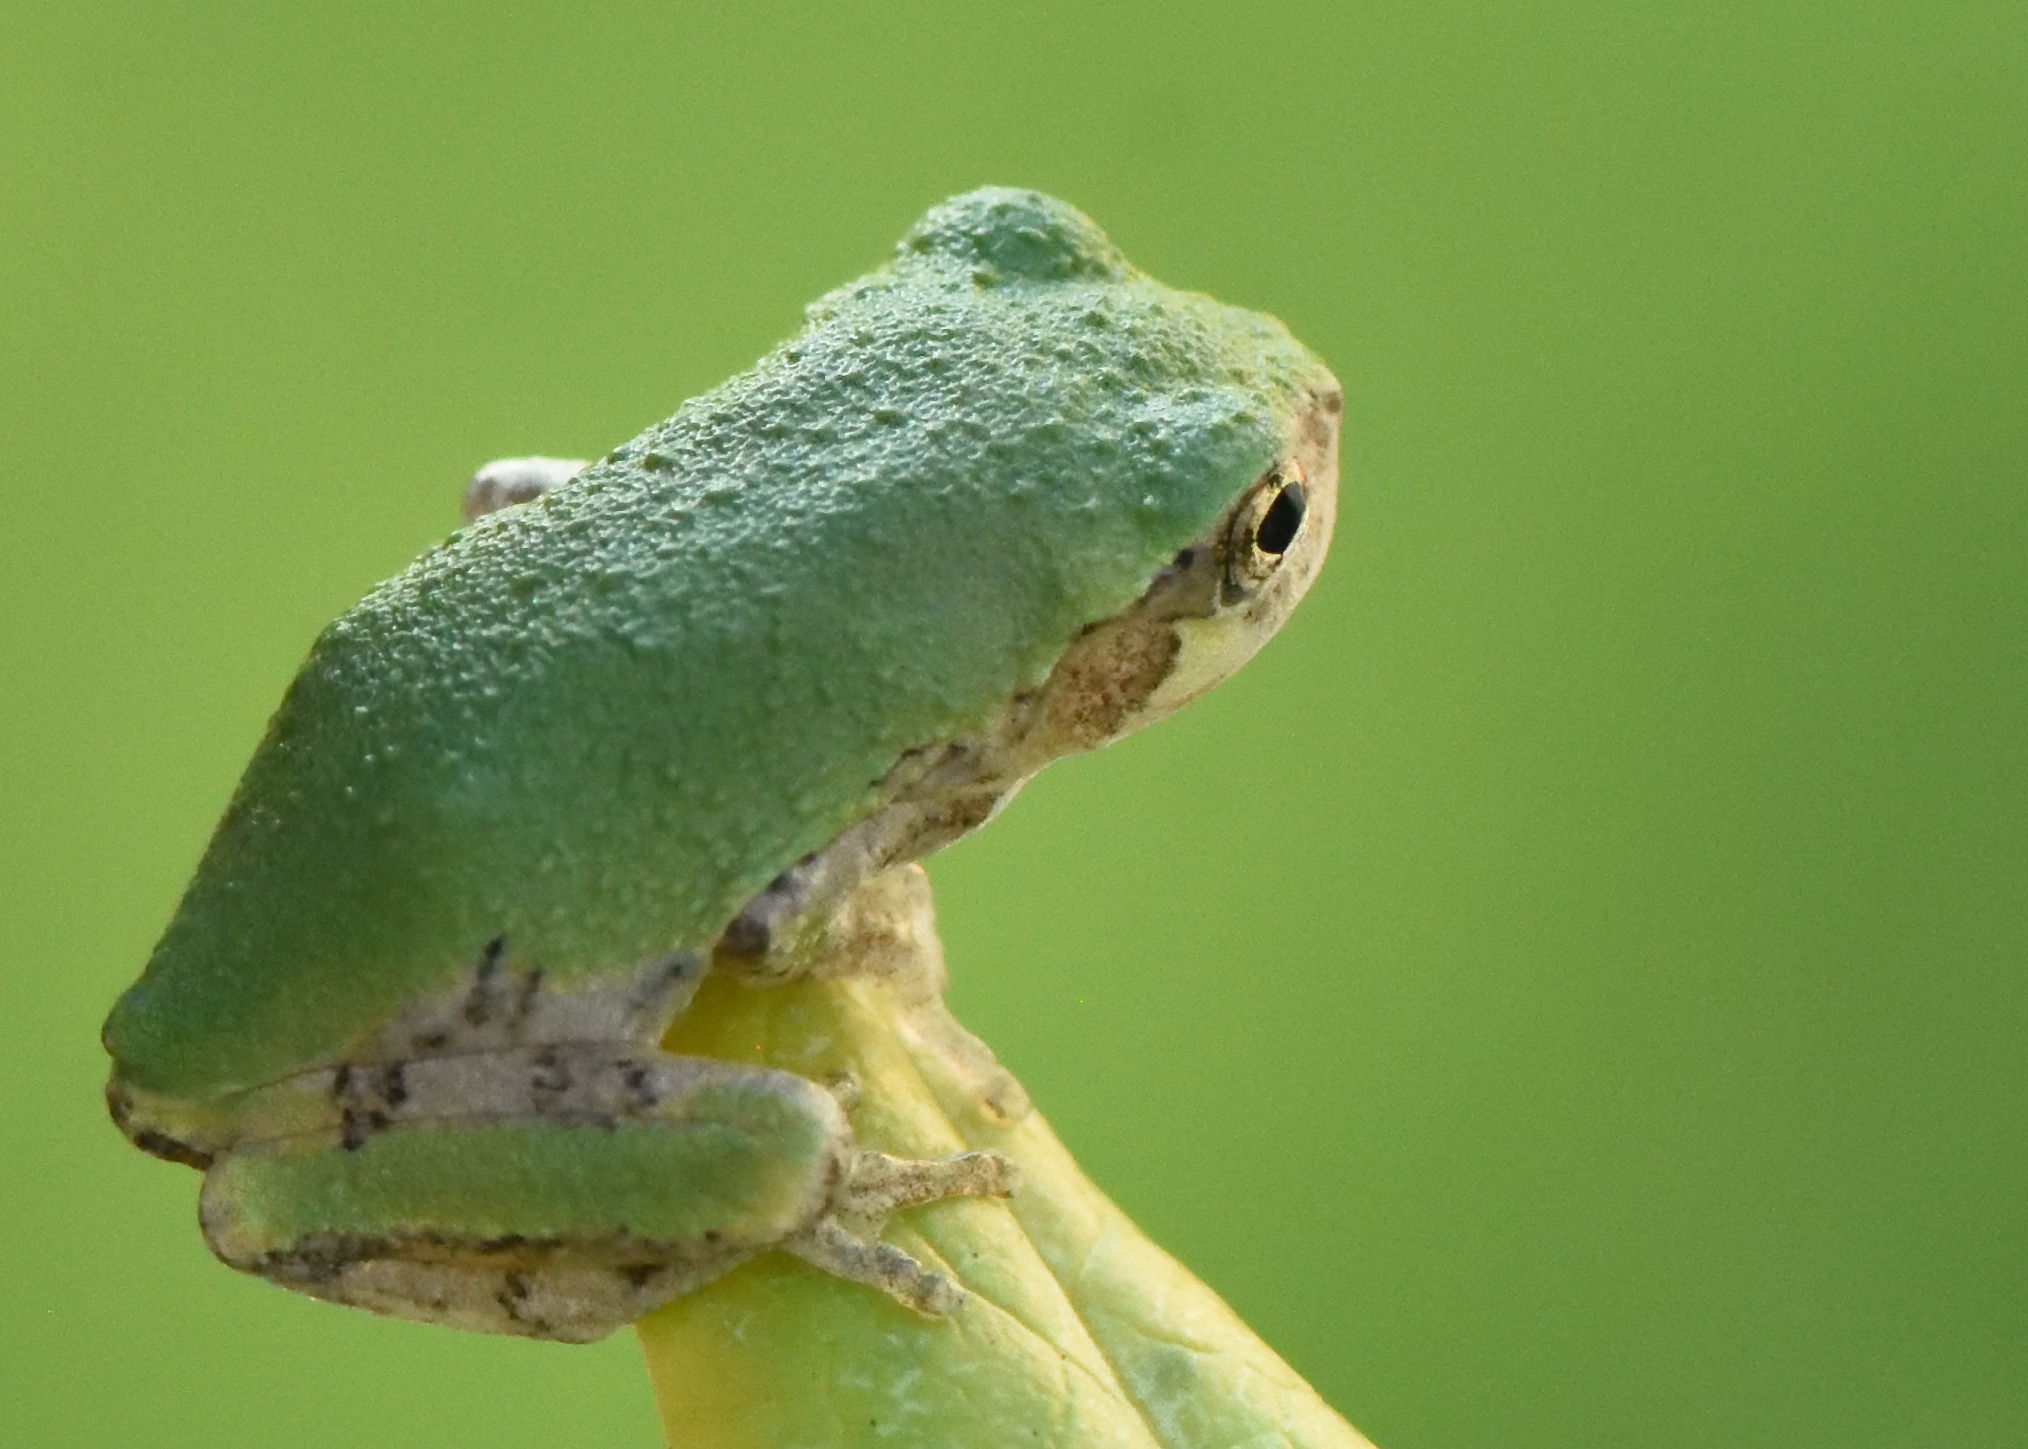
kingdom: Animalia
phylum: Chordata
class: Amphibia
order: Anura
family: Hylidae
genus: Dryophytes
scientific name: Dryophytes versicolor
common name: Gray treefrog
